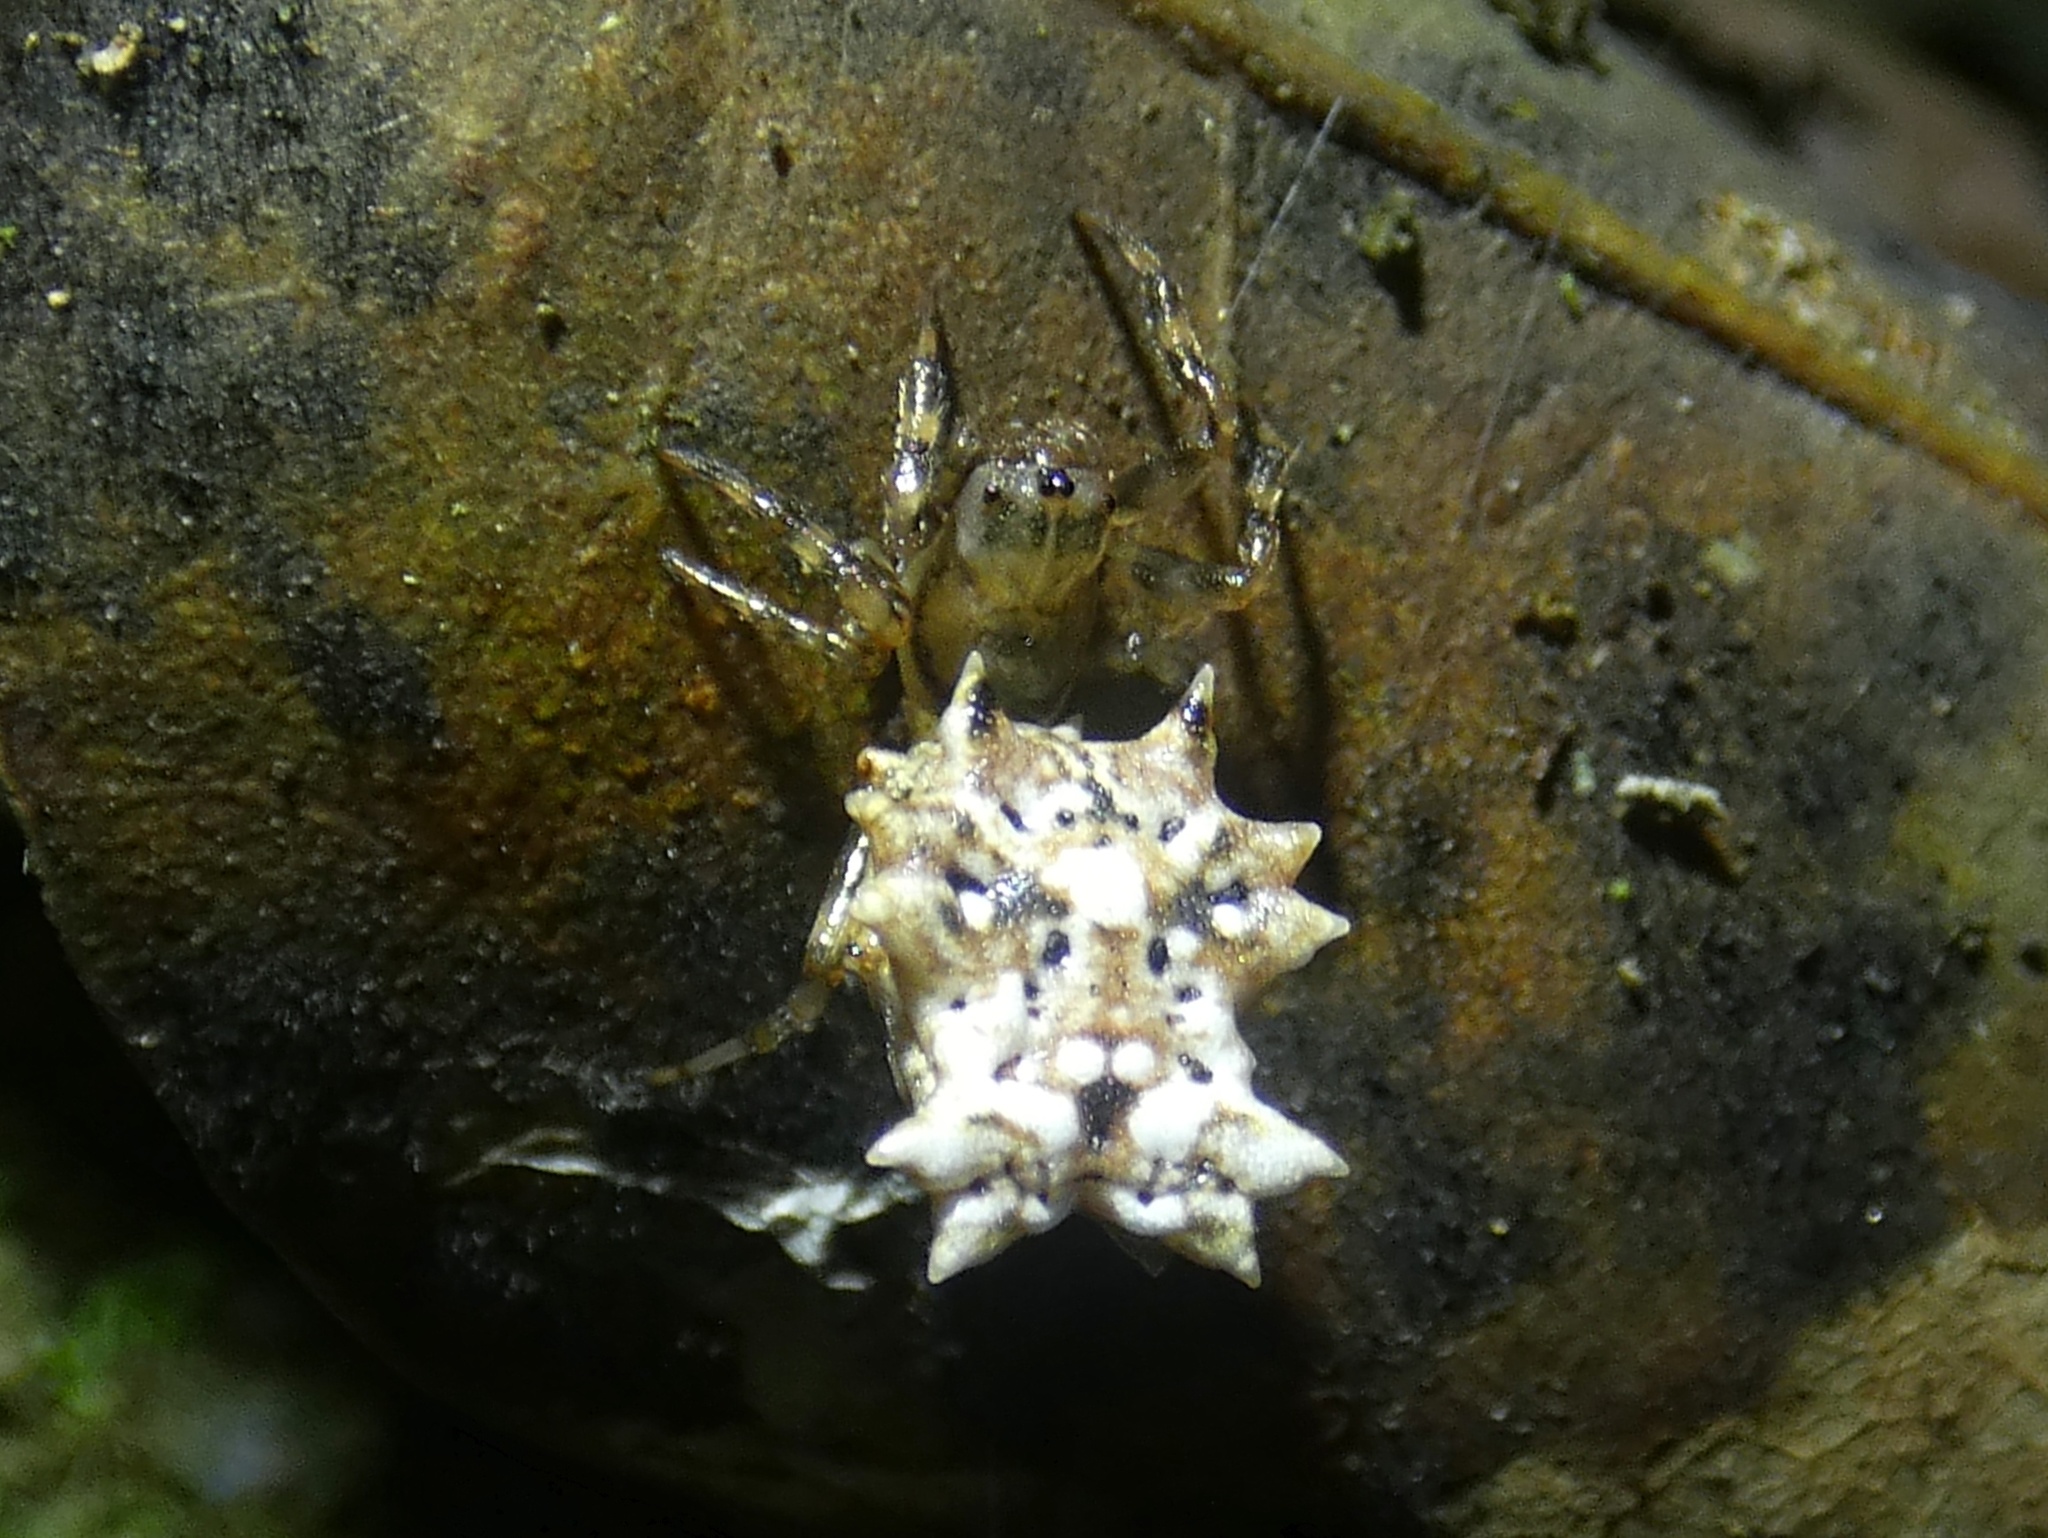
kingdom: Animalia
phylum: Arthropoda
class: Arachnida
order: Araneae
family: Araneidae
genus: Micrathena
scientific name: Micrathena horrida
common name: Orb weavers
